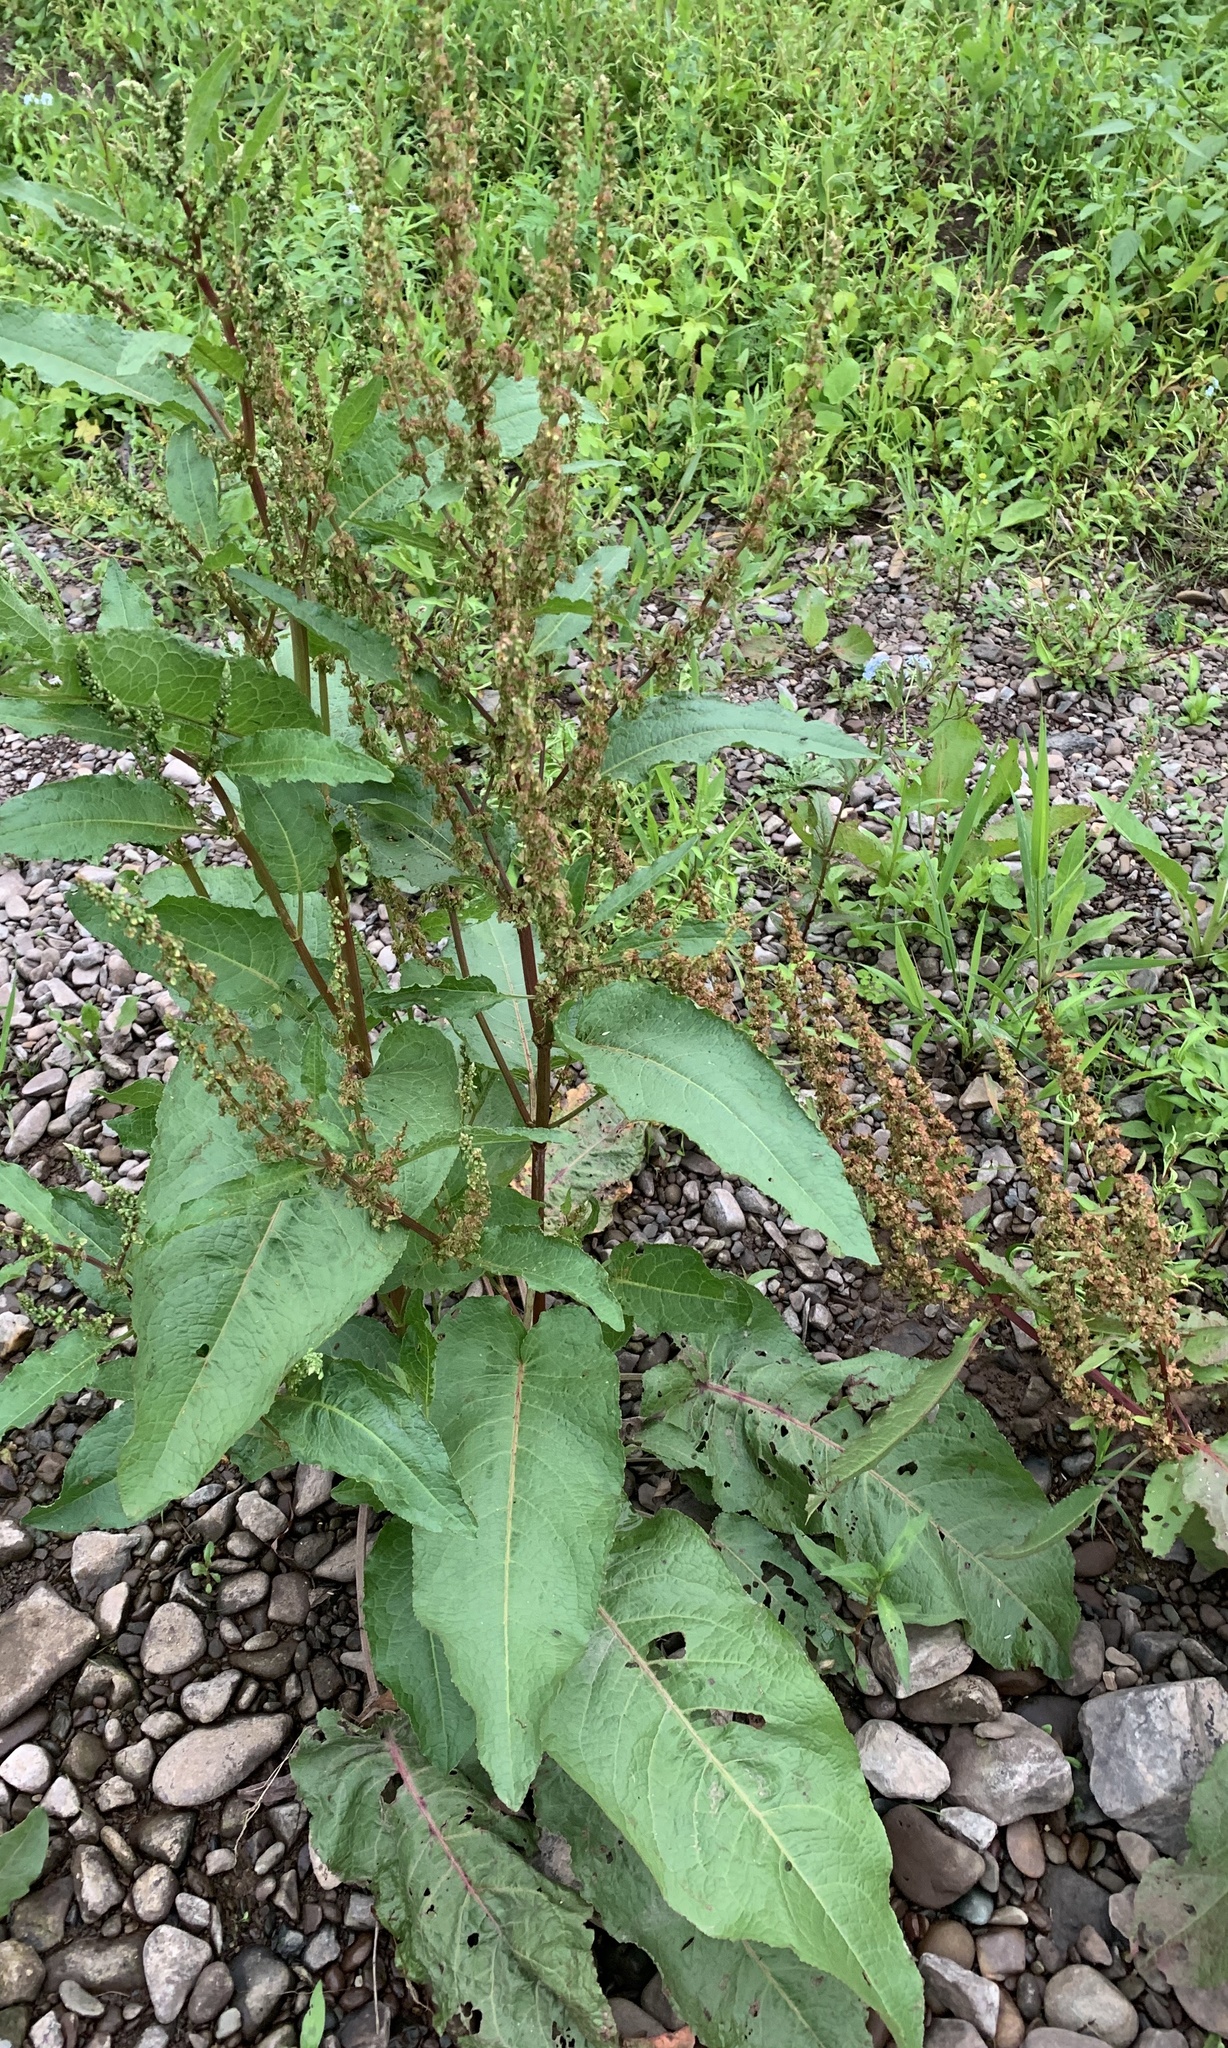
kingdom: Plantae
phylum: Tracheophyta
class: Magnoliopsida
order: Caryophyllales
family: Polygonaceae
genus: Rumex
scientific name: Rumex obtusifolius
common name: Bitter dock
